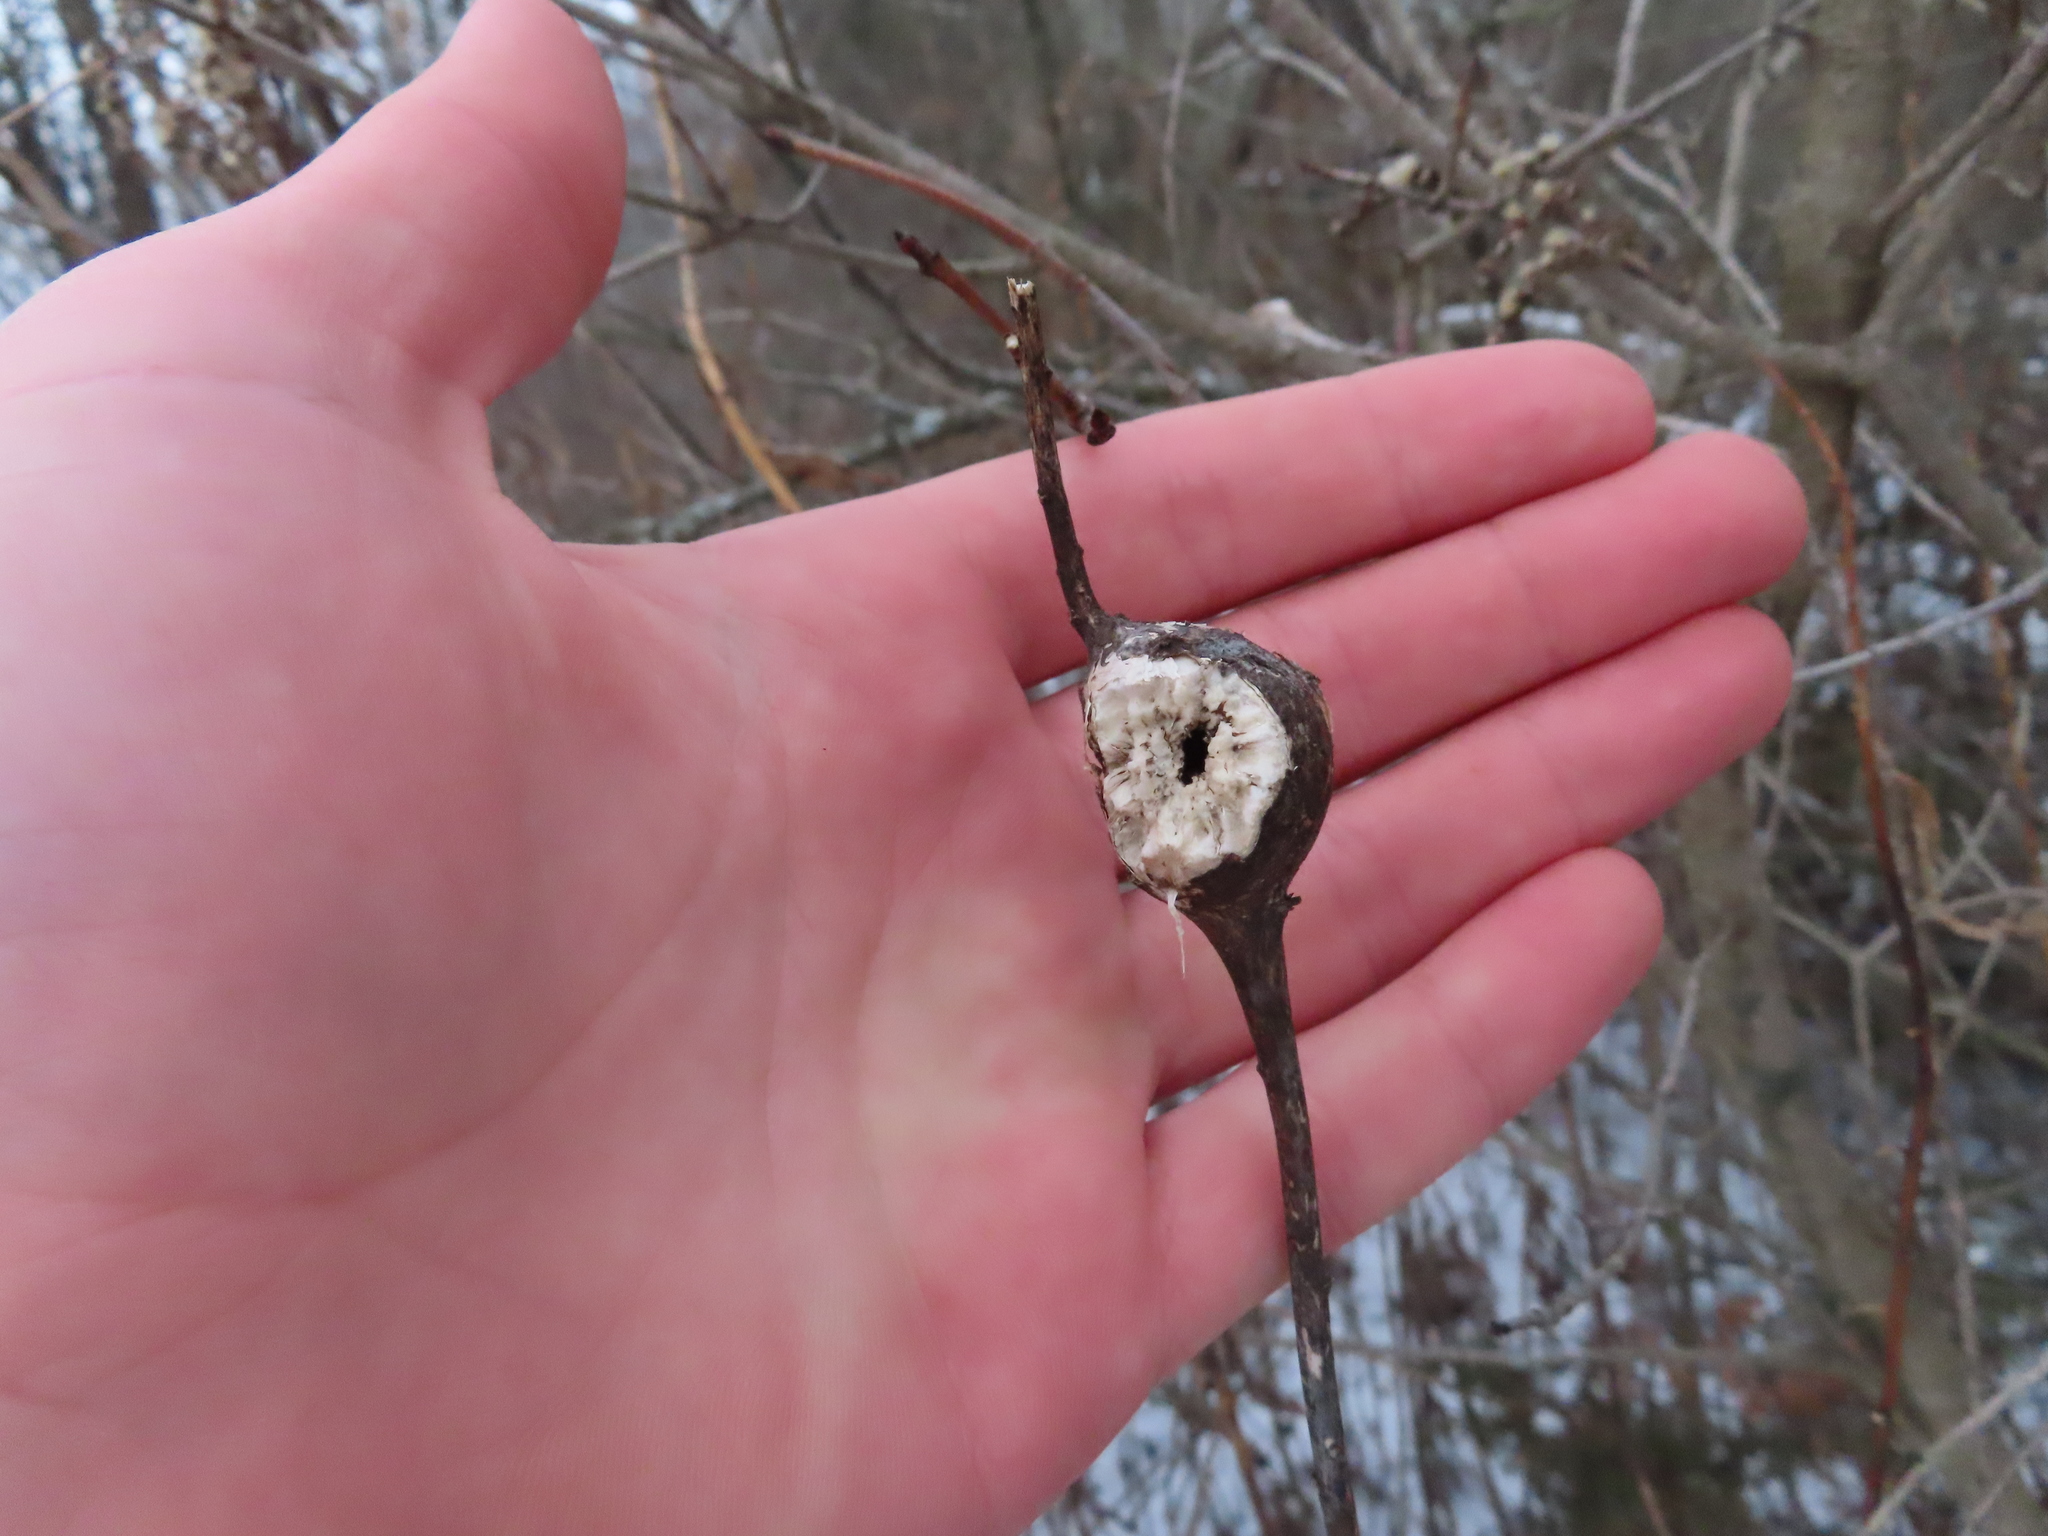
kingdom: Animalia
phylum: Arthropoda
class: Insecta
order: Diptera
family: Tephritidae
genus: Eurosta
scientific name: Eurosta solidaginis
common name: Goldenrod gall fly
